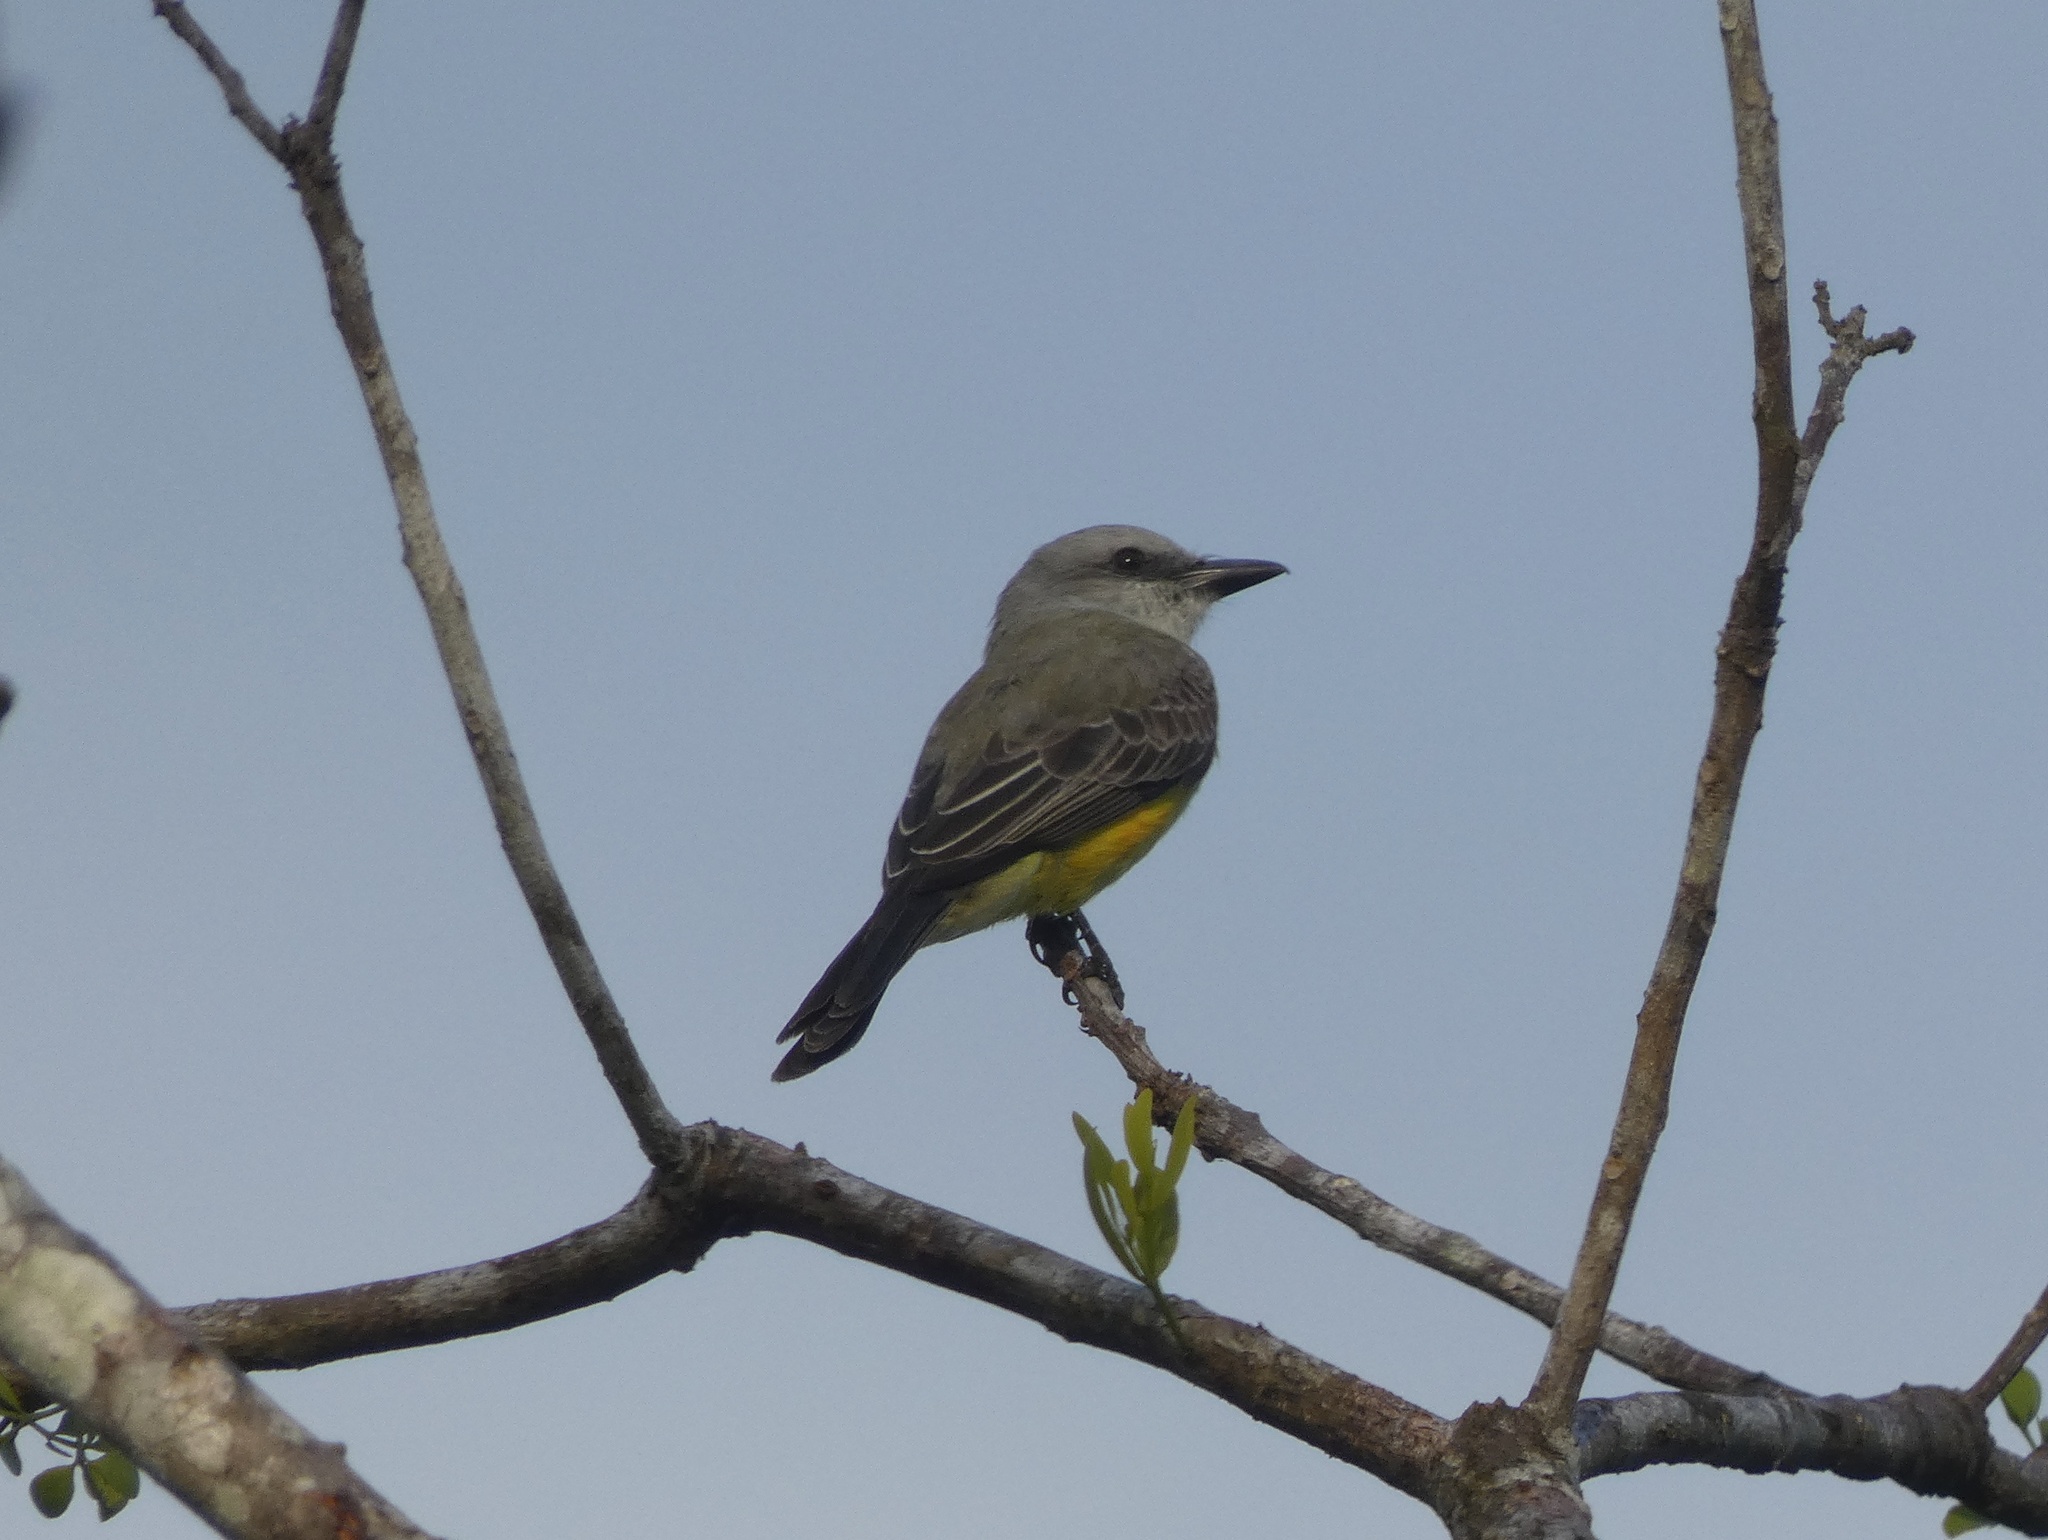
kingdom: Animalia
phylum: Chordata
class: Aves
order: Passeriformes
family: Tyrannidae
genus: Tyrannus
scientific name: Tyrannus melancholicus
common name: Tropical kingbird
